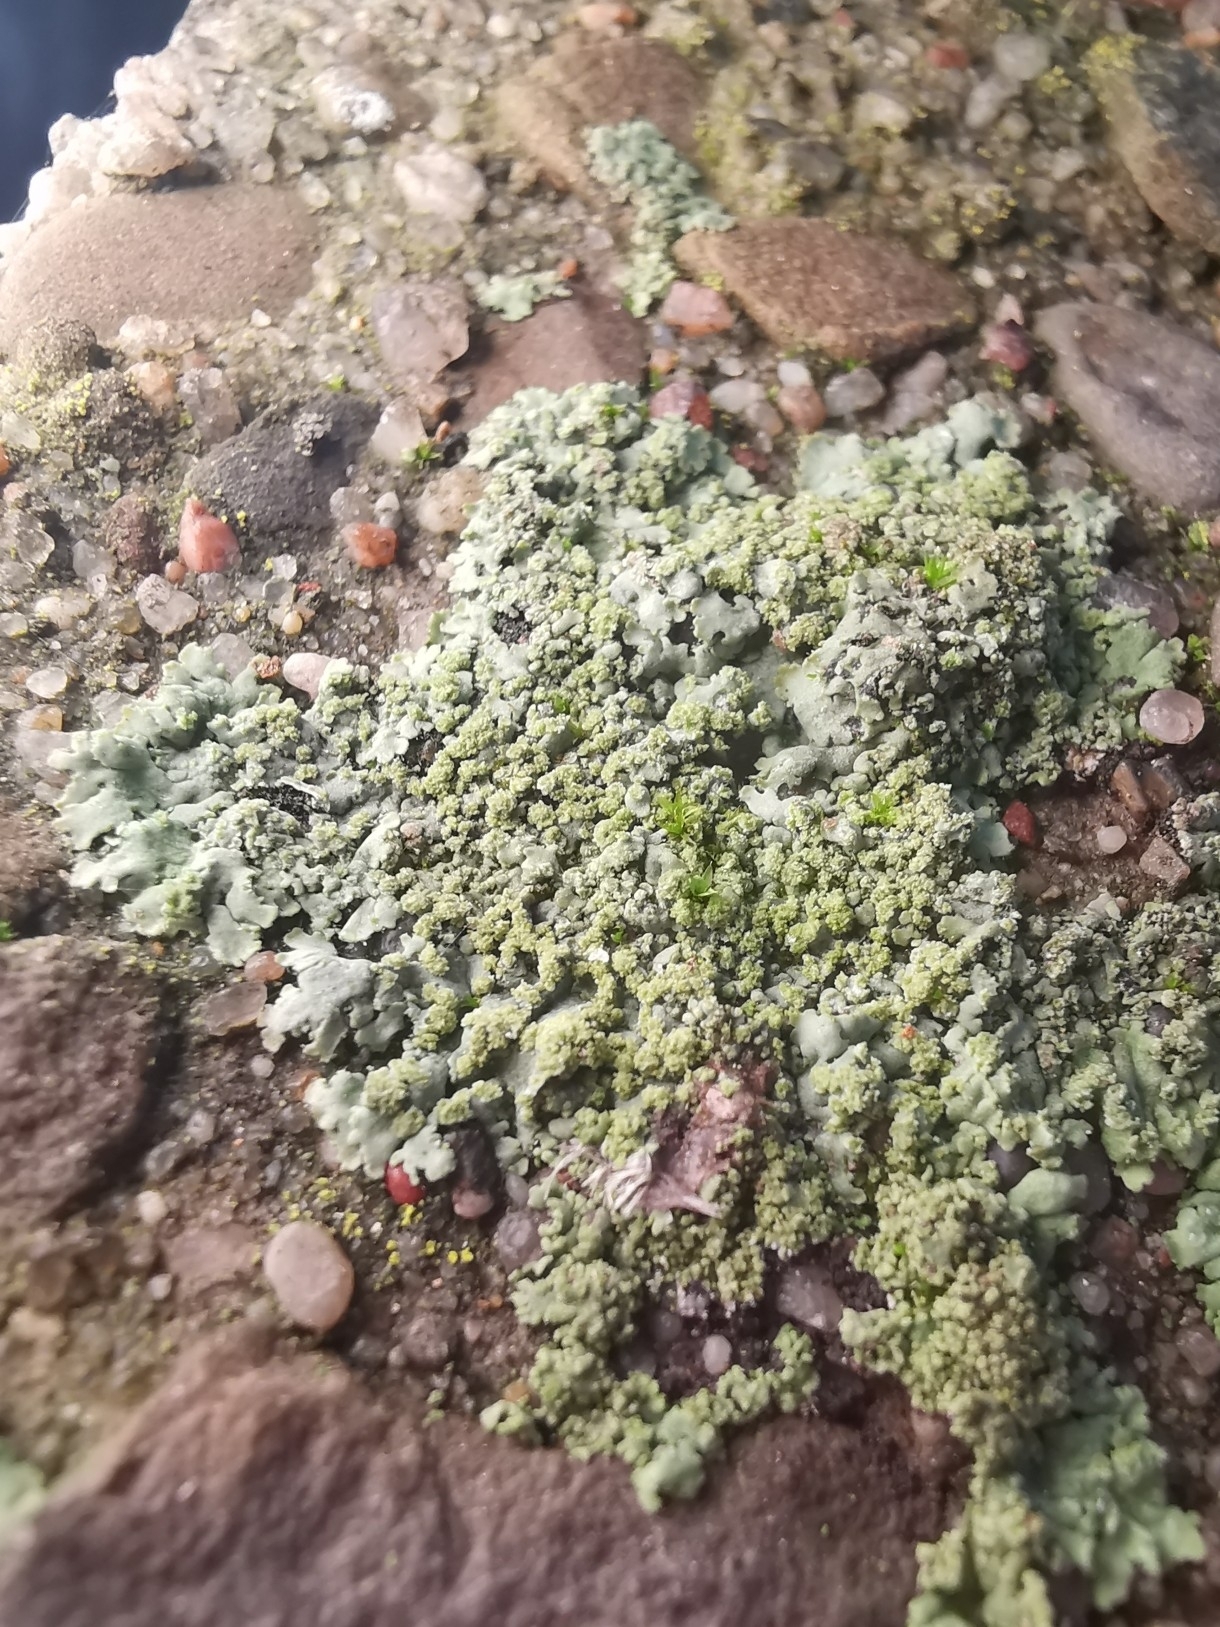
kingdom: Fungi
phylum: Ascomycota
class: Lecanoromycetes
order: Caliciales
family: Physciaceae
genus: Phaeophyscia
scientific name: Phaeophyscia orbicularis
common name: Mealy shadow lichen
